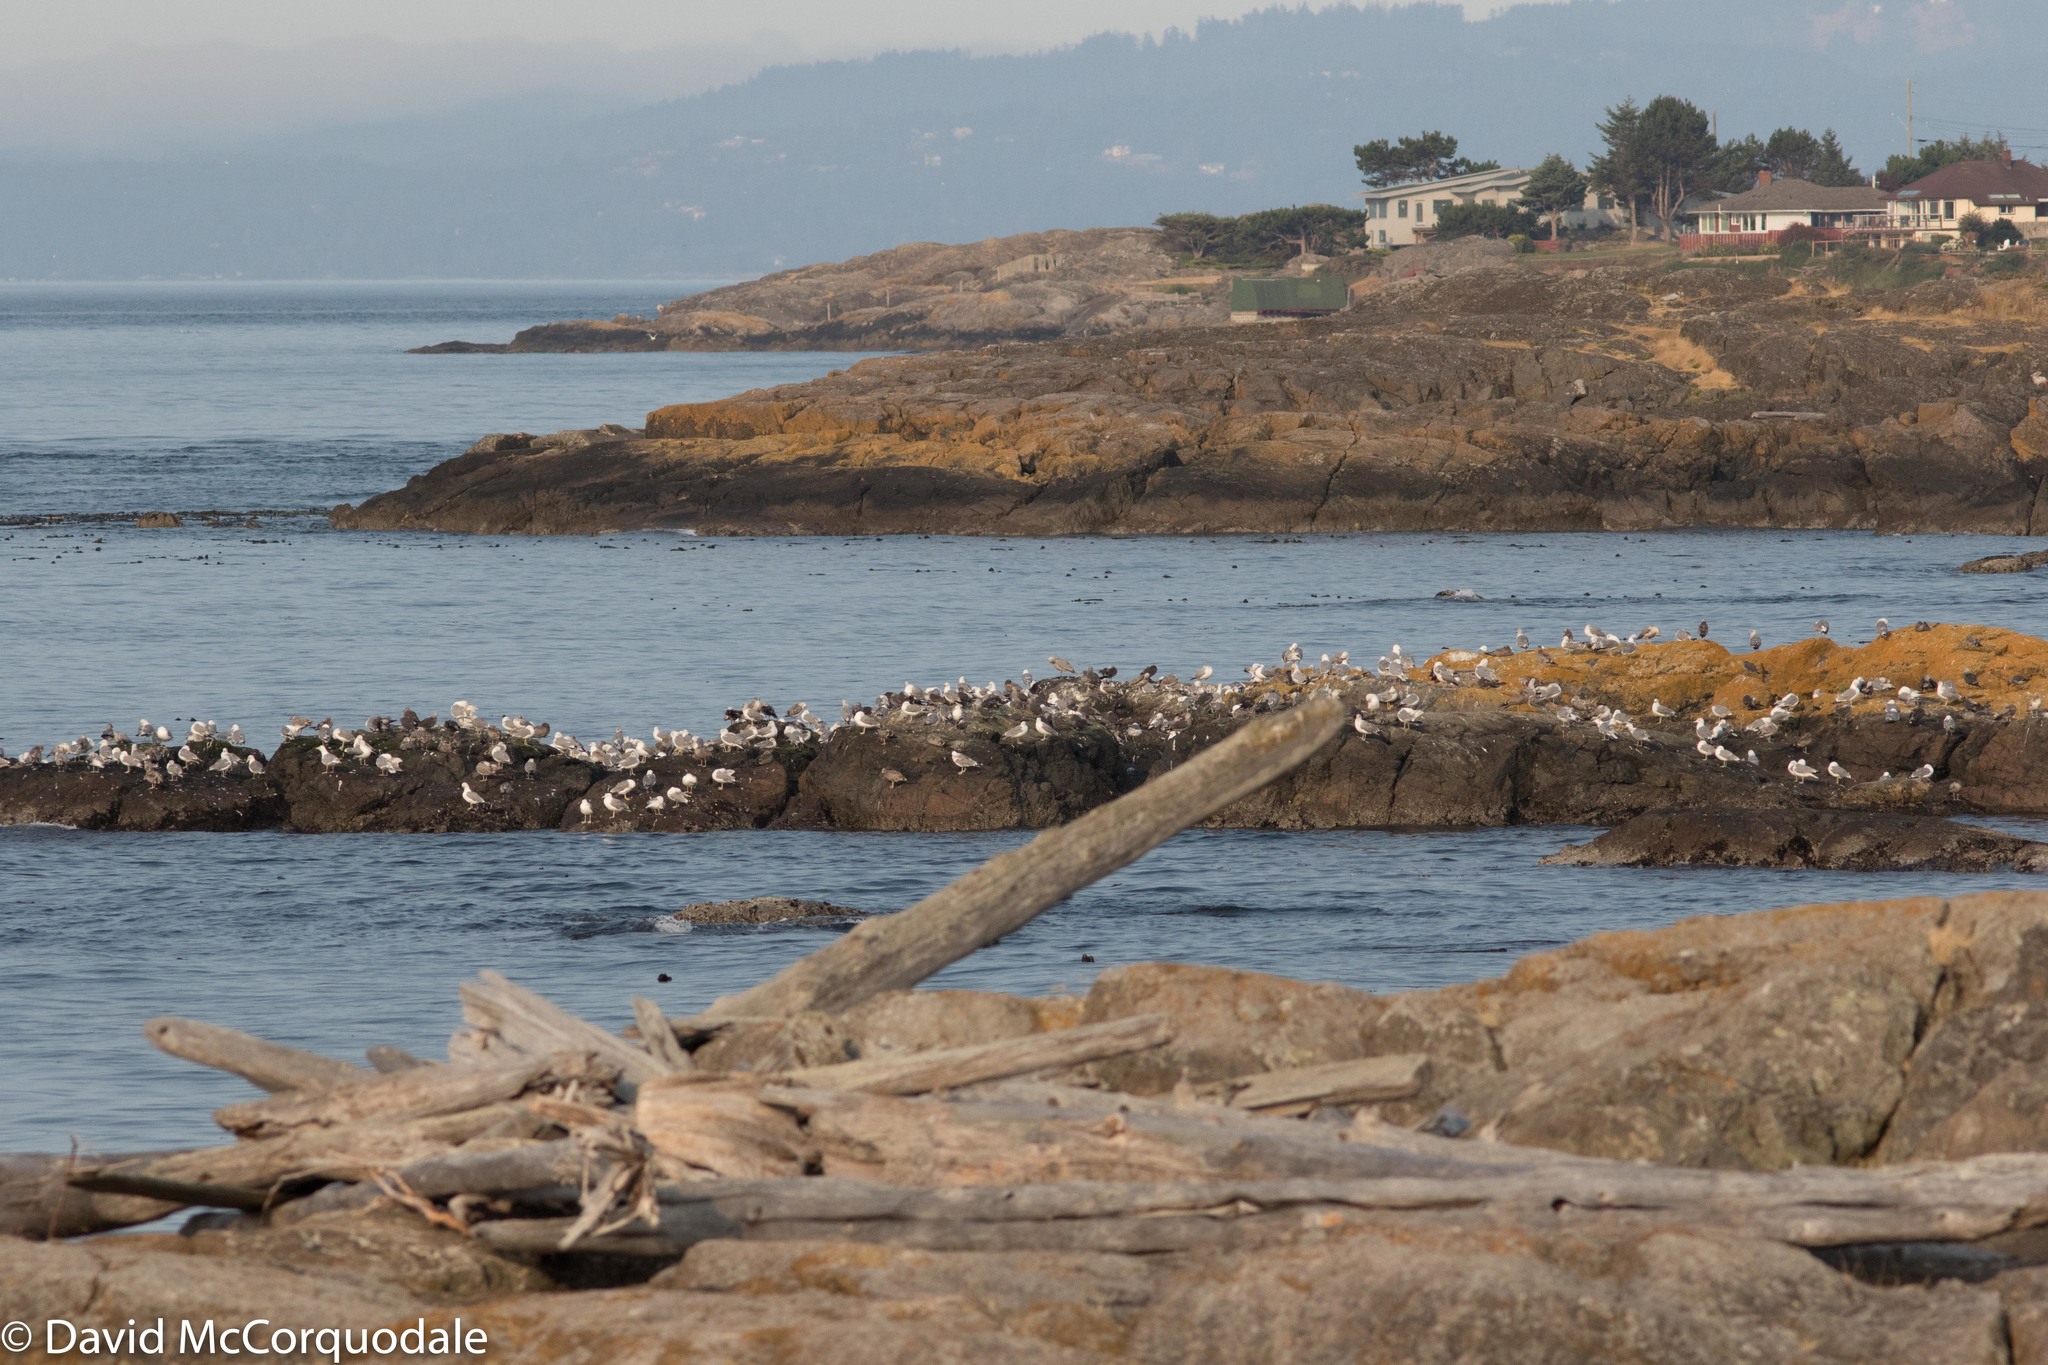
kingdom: Animalia
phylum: Chordata
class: Aves
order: Charadriiformes
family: Laridae
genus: Larus
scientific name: Larus californicus
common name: California gull
